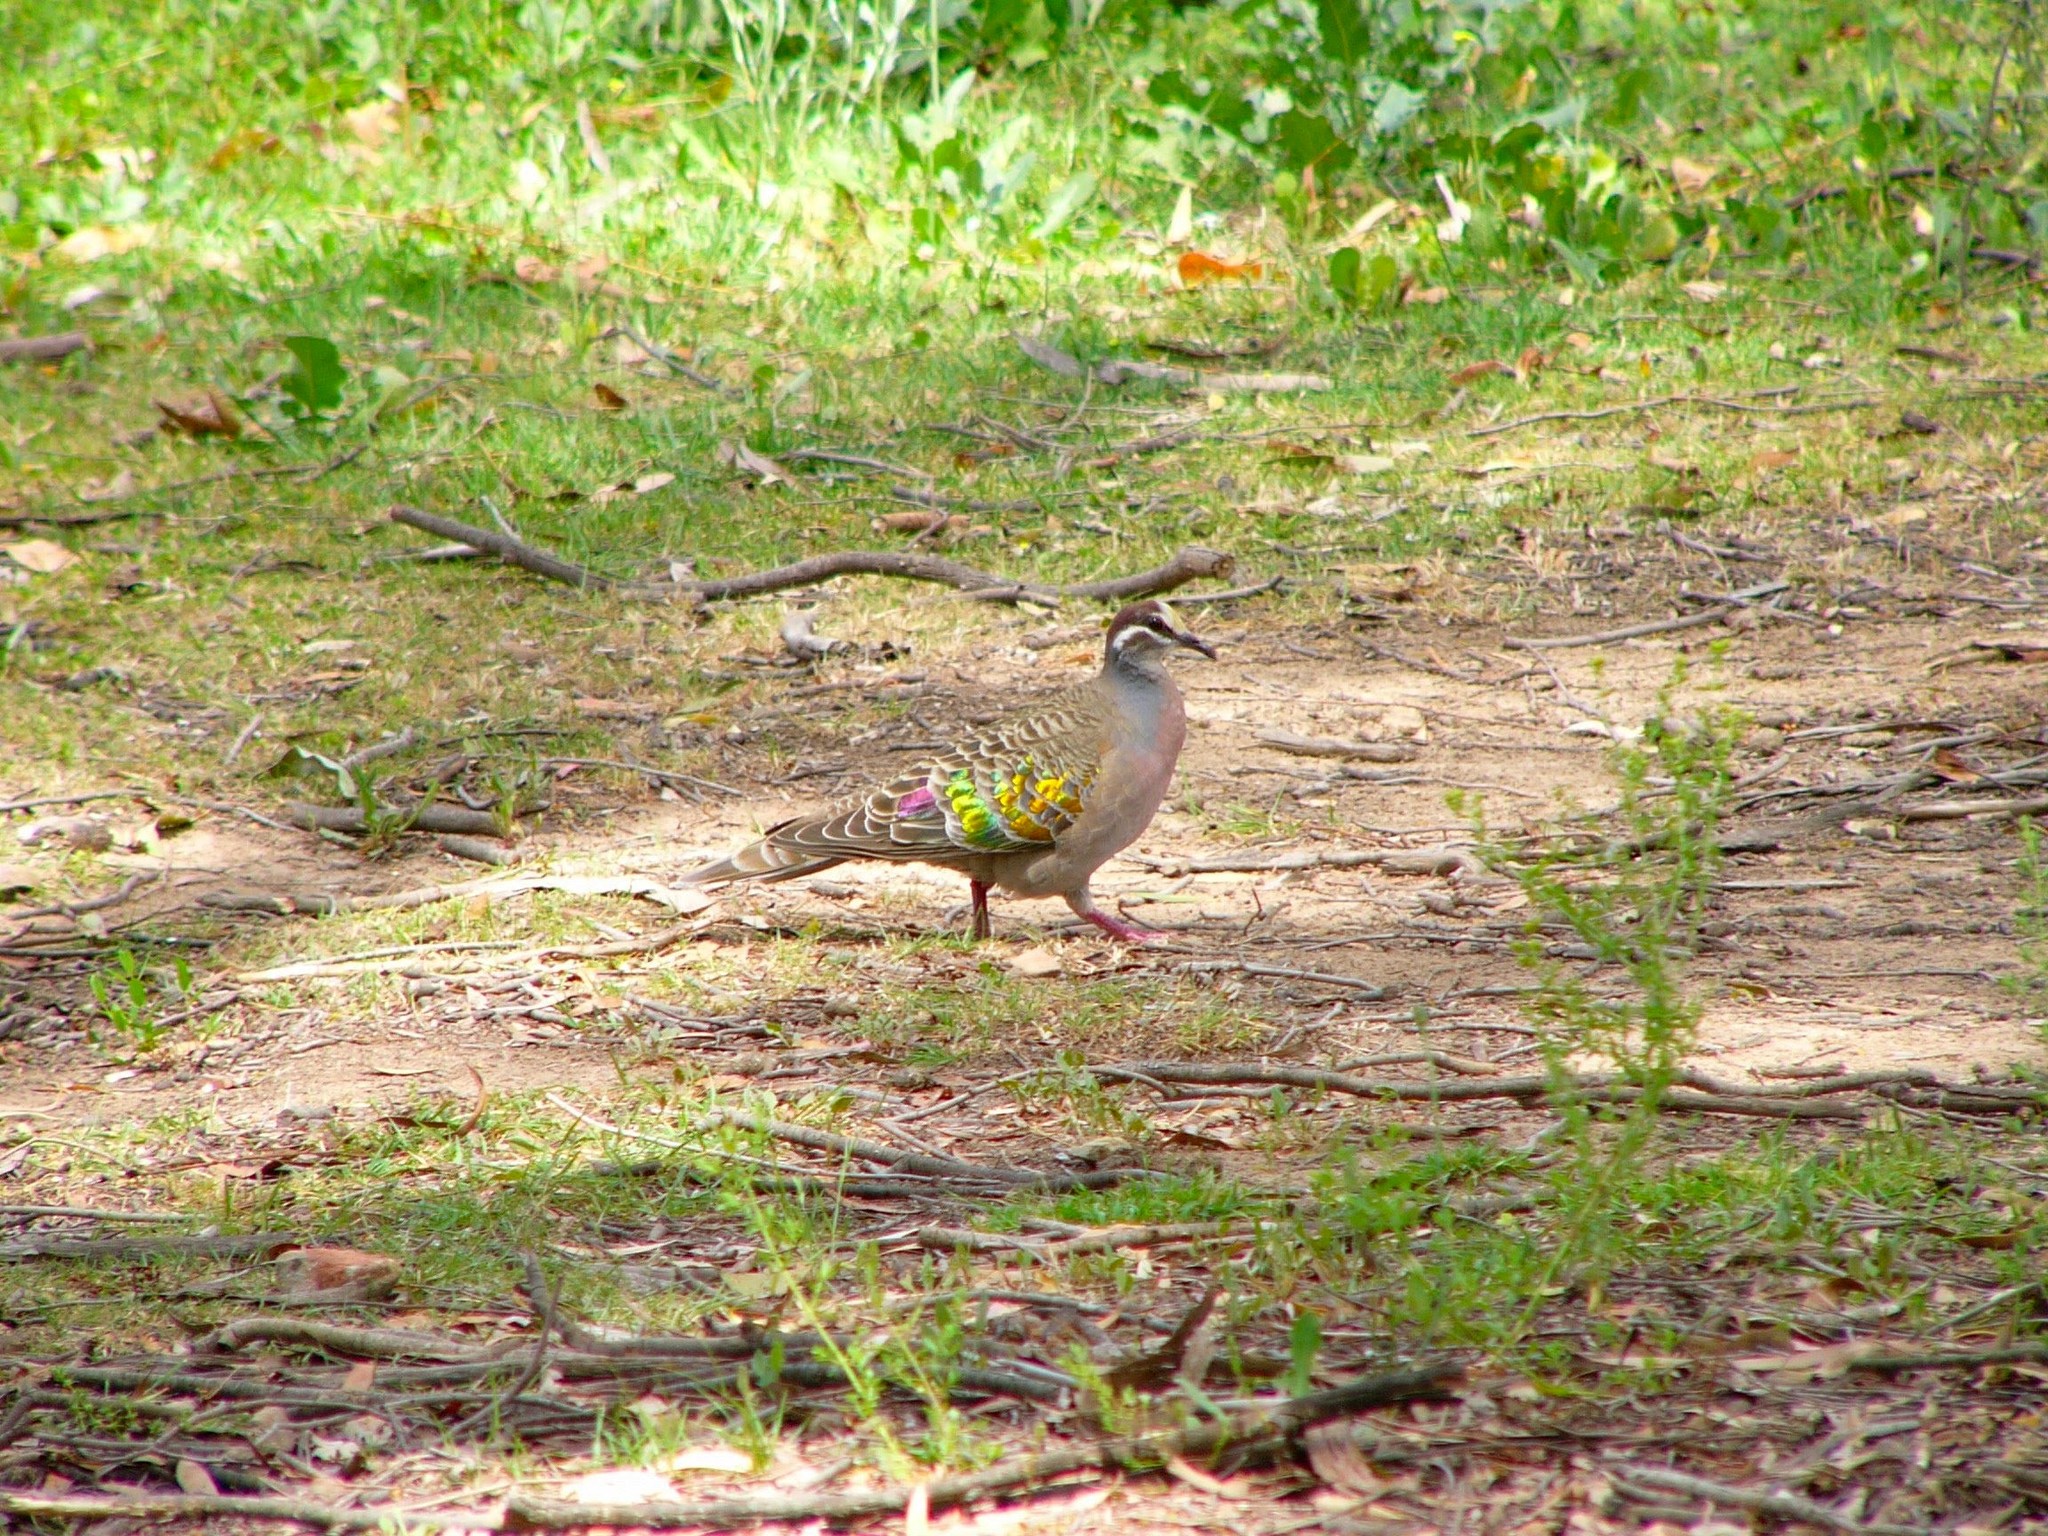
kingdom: Animalia
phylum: Chordata
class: Aves
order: Columbiformes
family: Columbidae
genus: Phaps
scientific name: Phaps chalcoptera
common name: Common bronzewing
